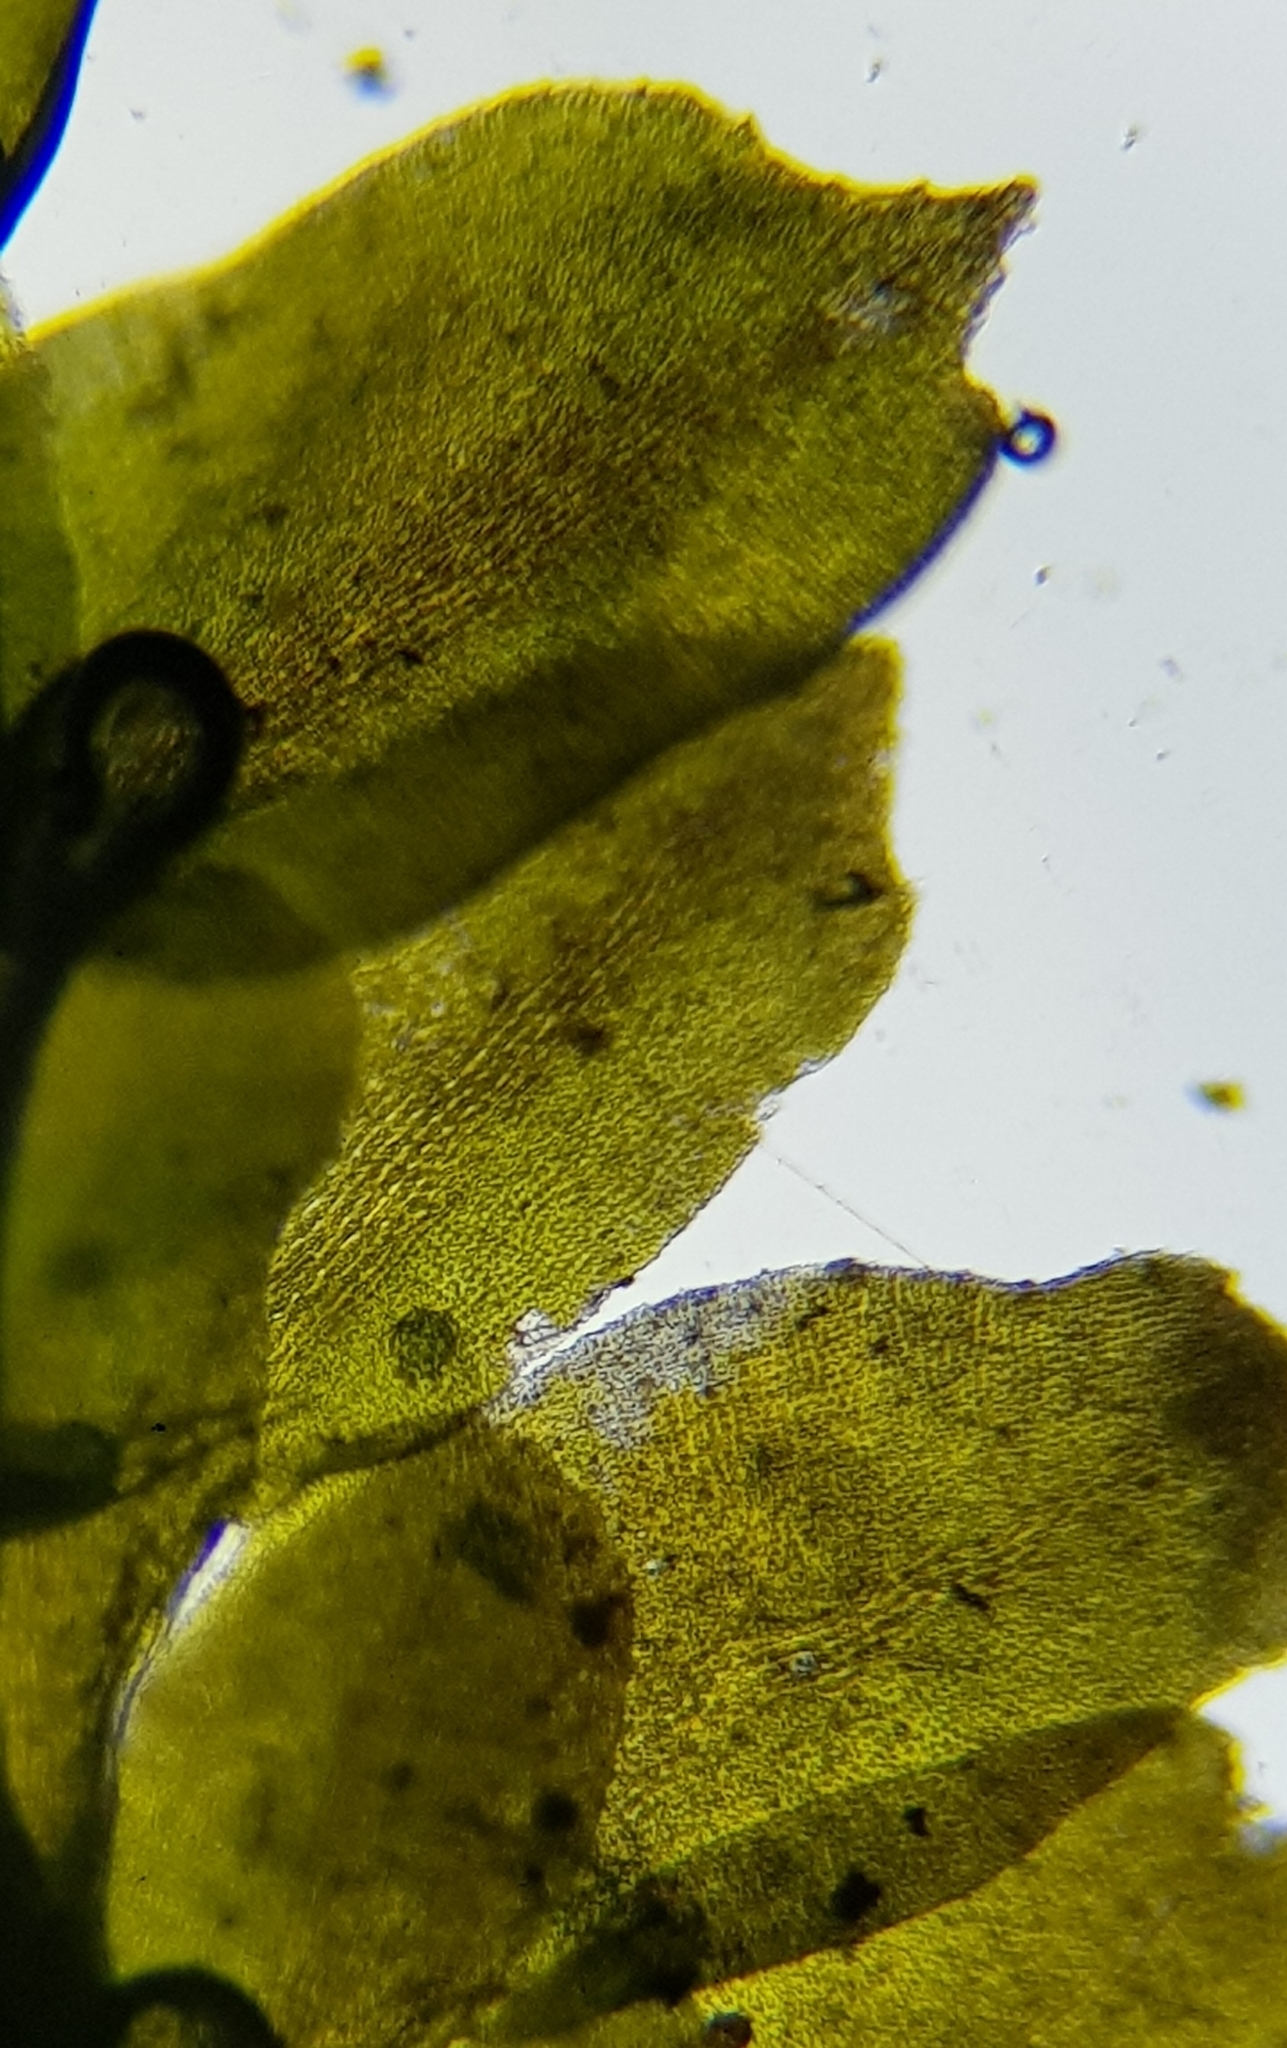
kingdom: Plantae
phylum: Marchantiophyta
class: Jungermanniopsida
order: Jungermanniales
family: Scapaniaceae
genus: Diplophyllum
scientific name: Diplophyllum albicans
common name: White earwort
